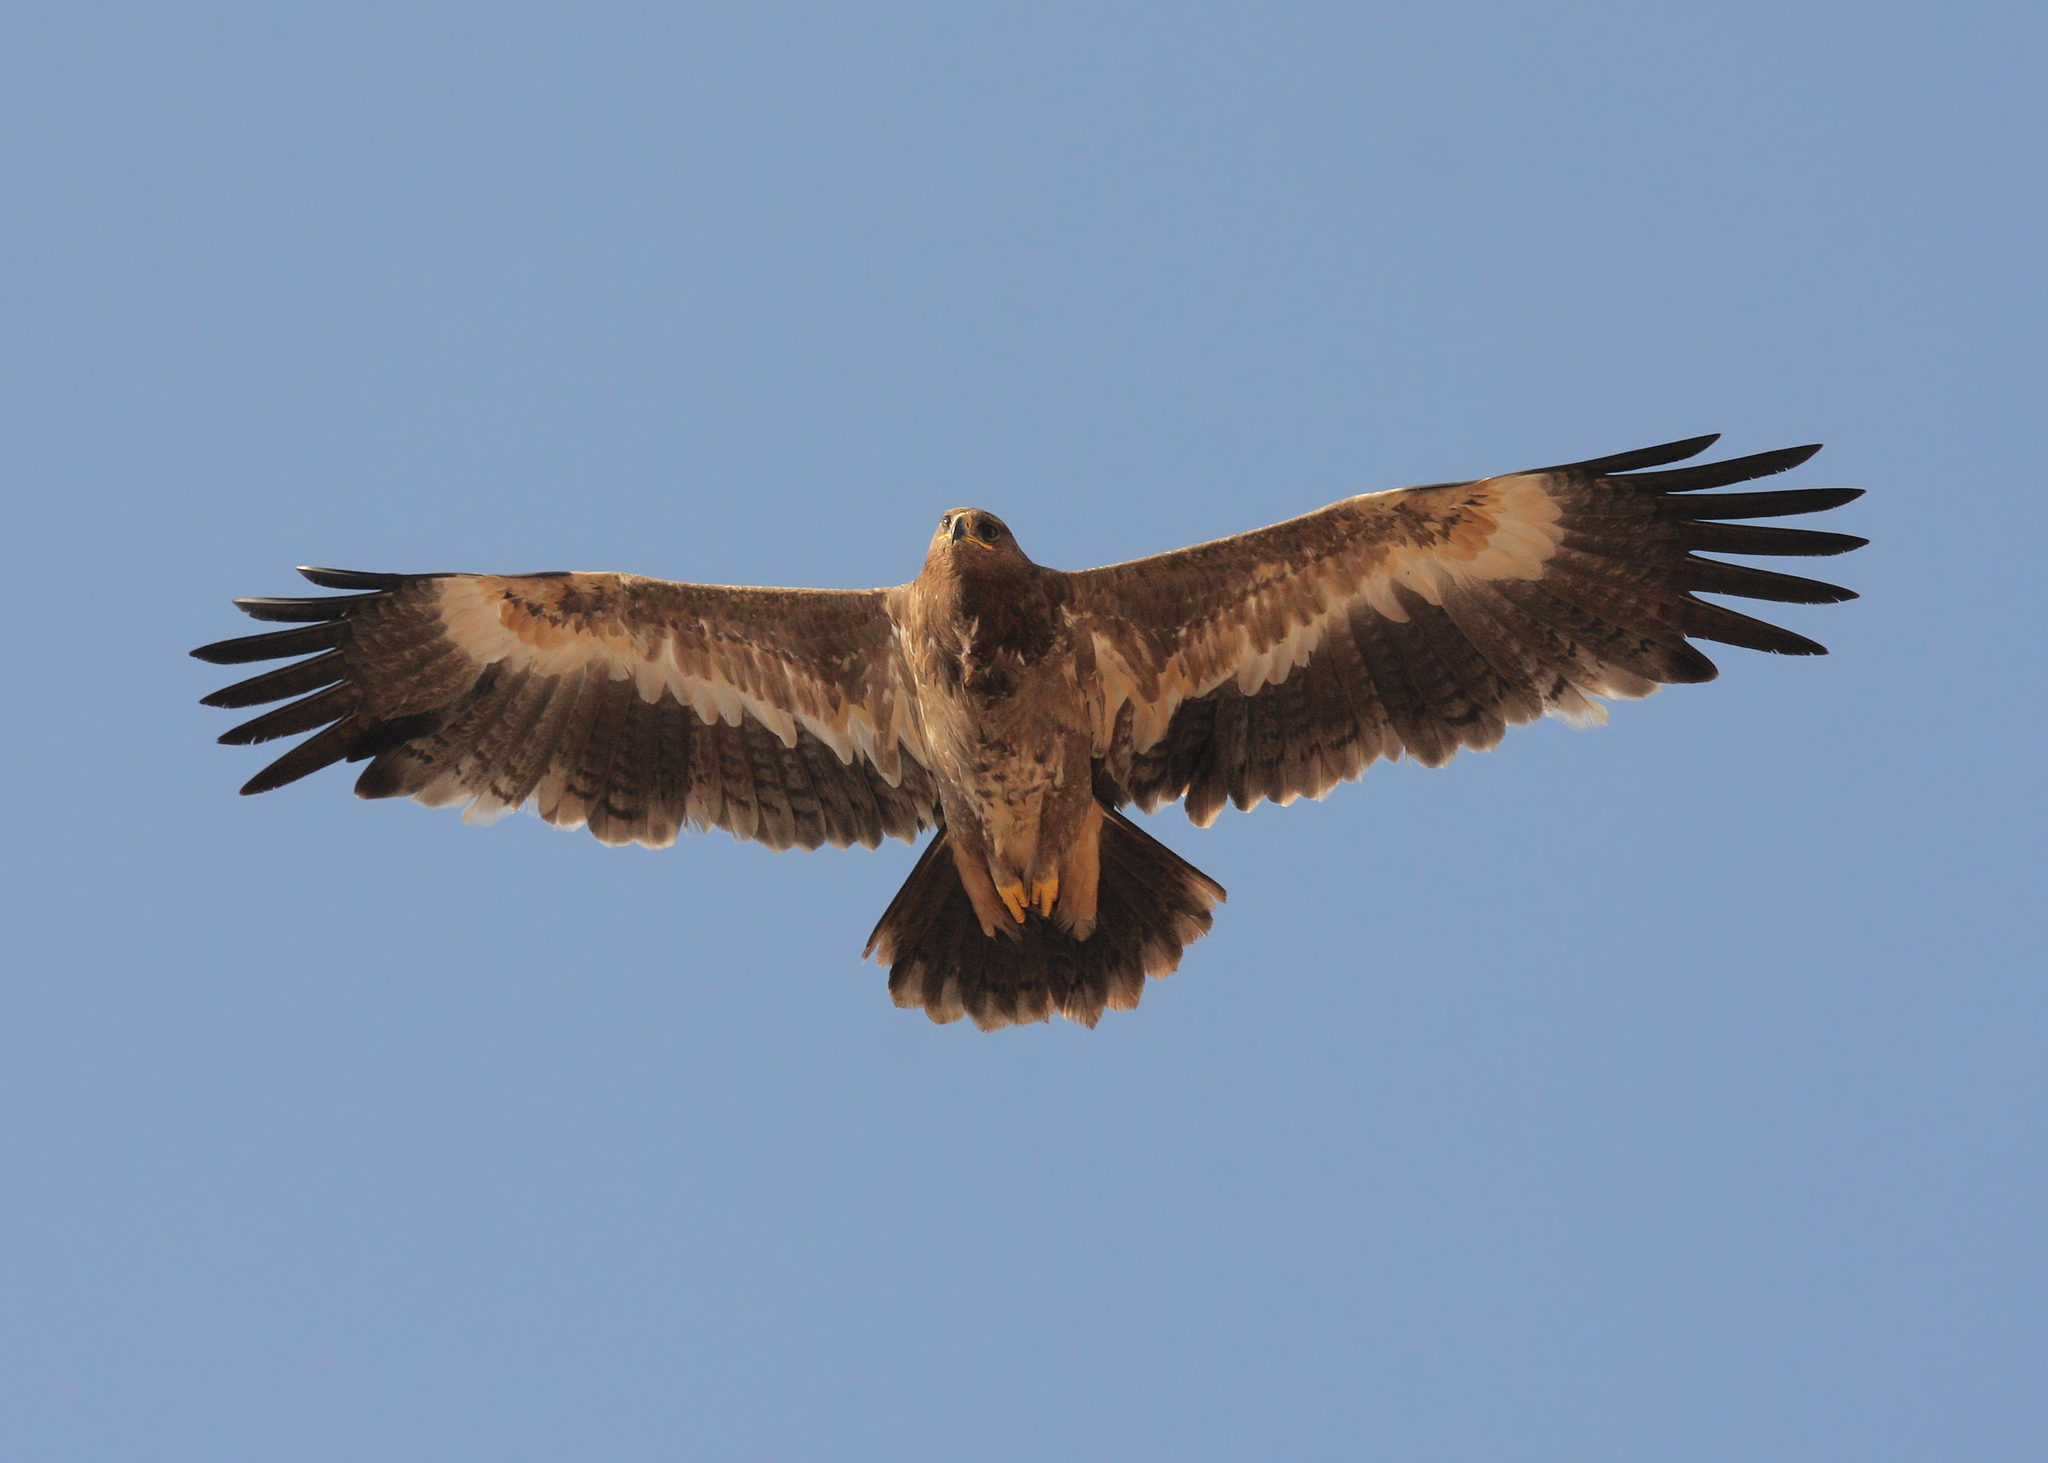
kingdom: Animalia
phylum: Chordata
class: Aves
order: Accipitriformes
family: Accipitridae
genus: Aquila
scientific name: Aquila nipalensis
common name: Steppe eagle
